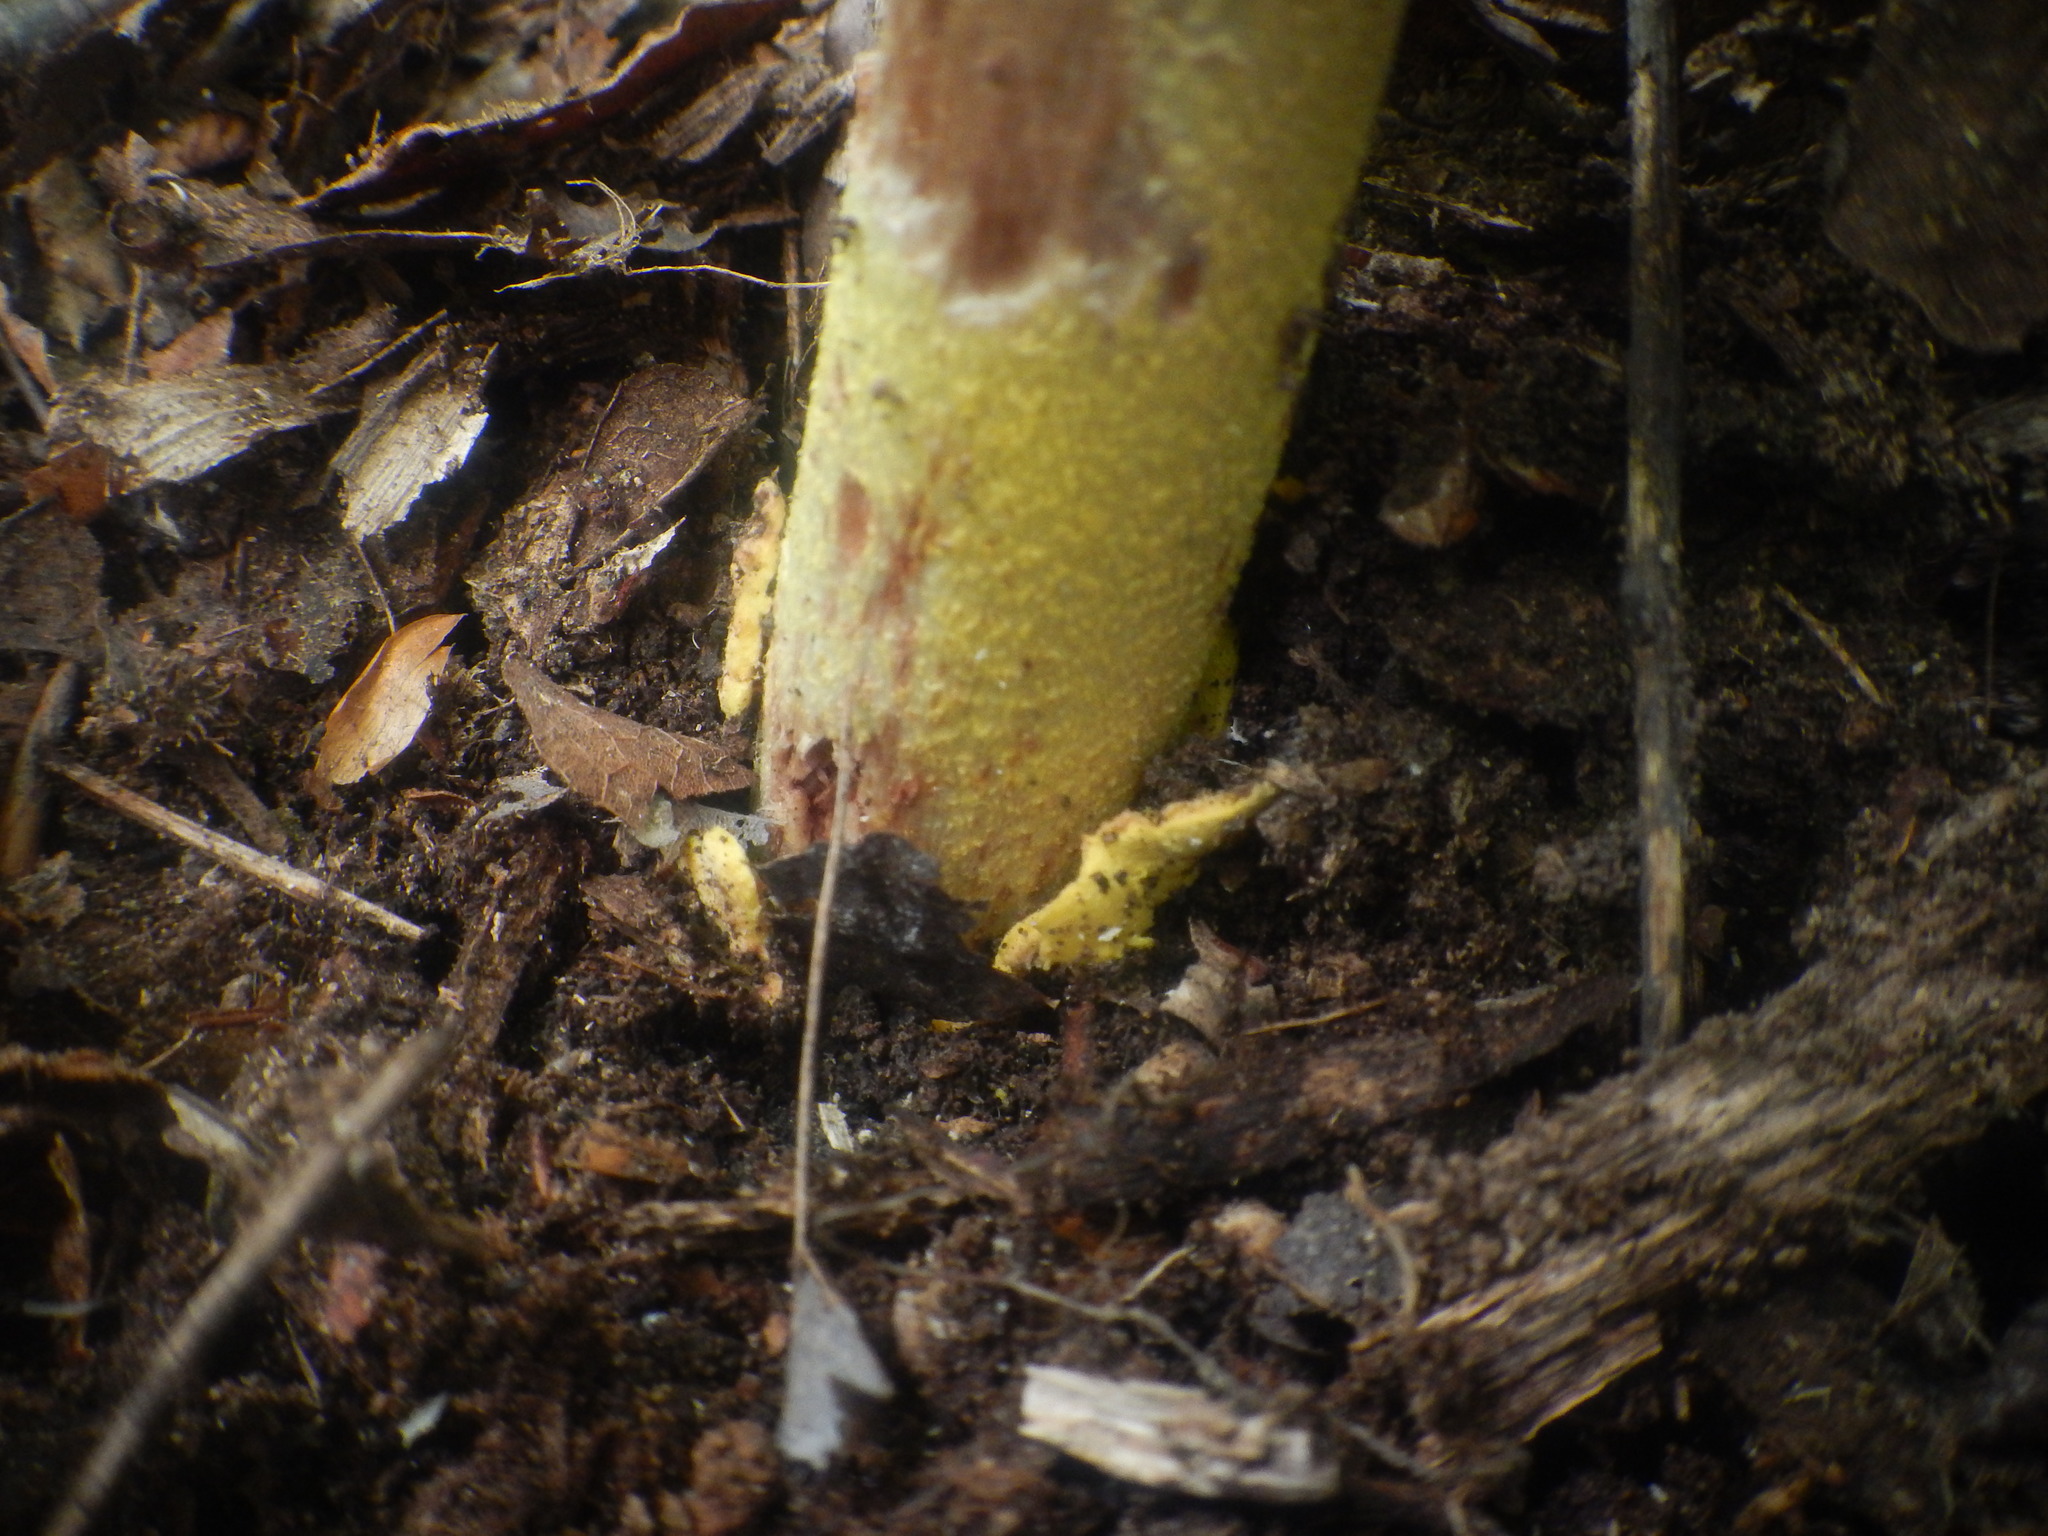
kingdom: Fungi
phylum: Basidiomycota
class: Agaricomycetes
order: Agaricales
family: Amanitaceae
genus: Amanita
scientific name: Amanita flavoconia
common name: Yellow patches
